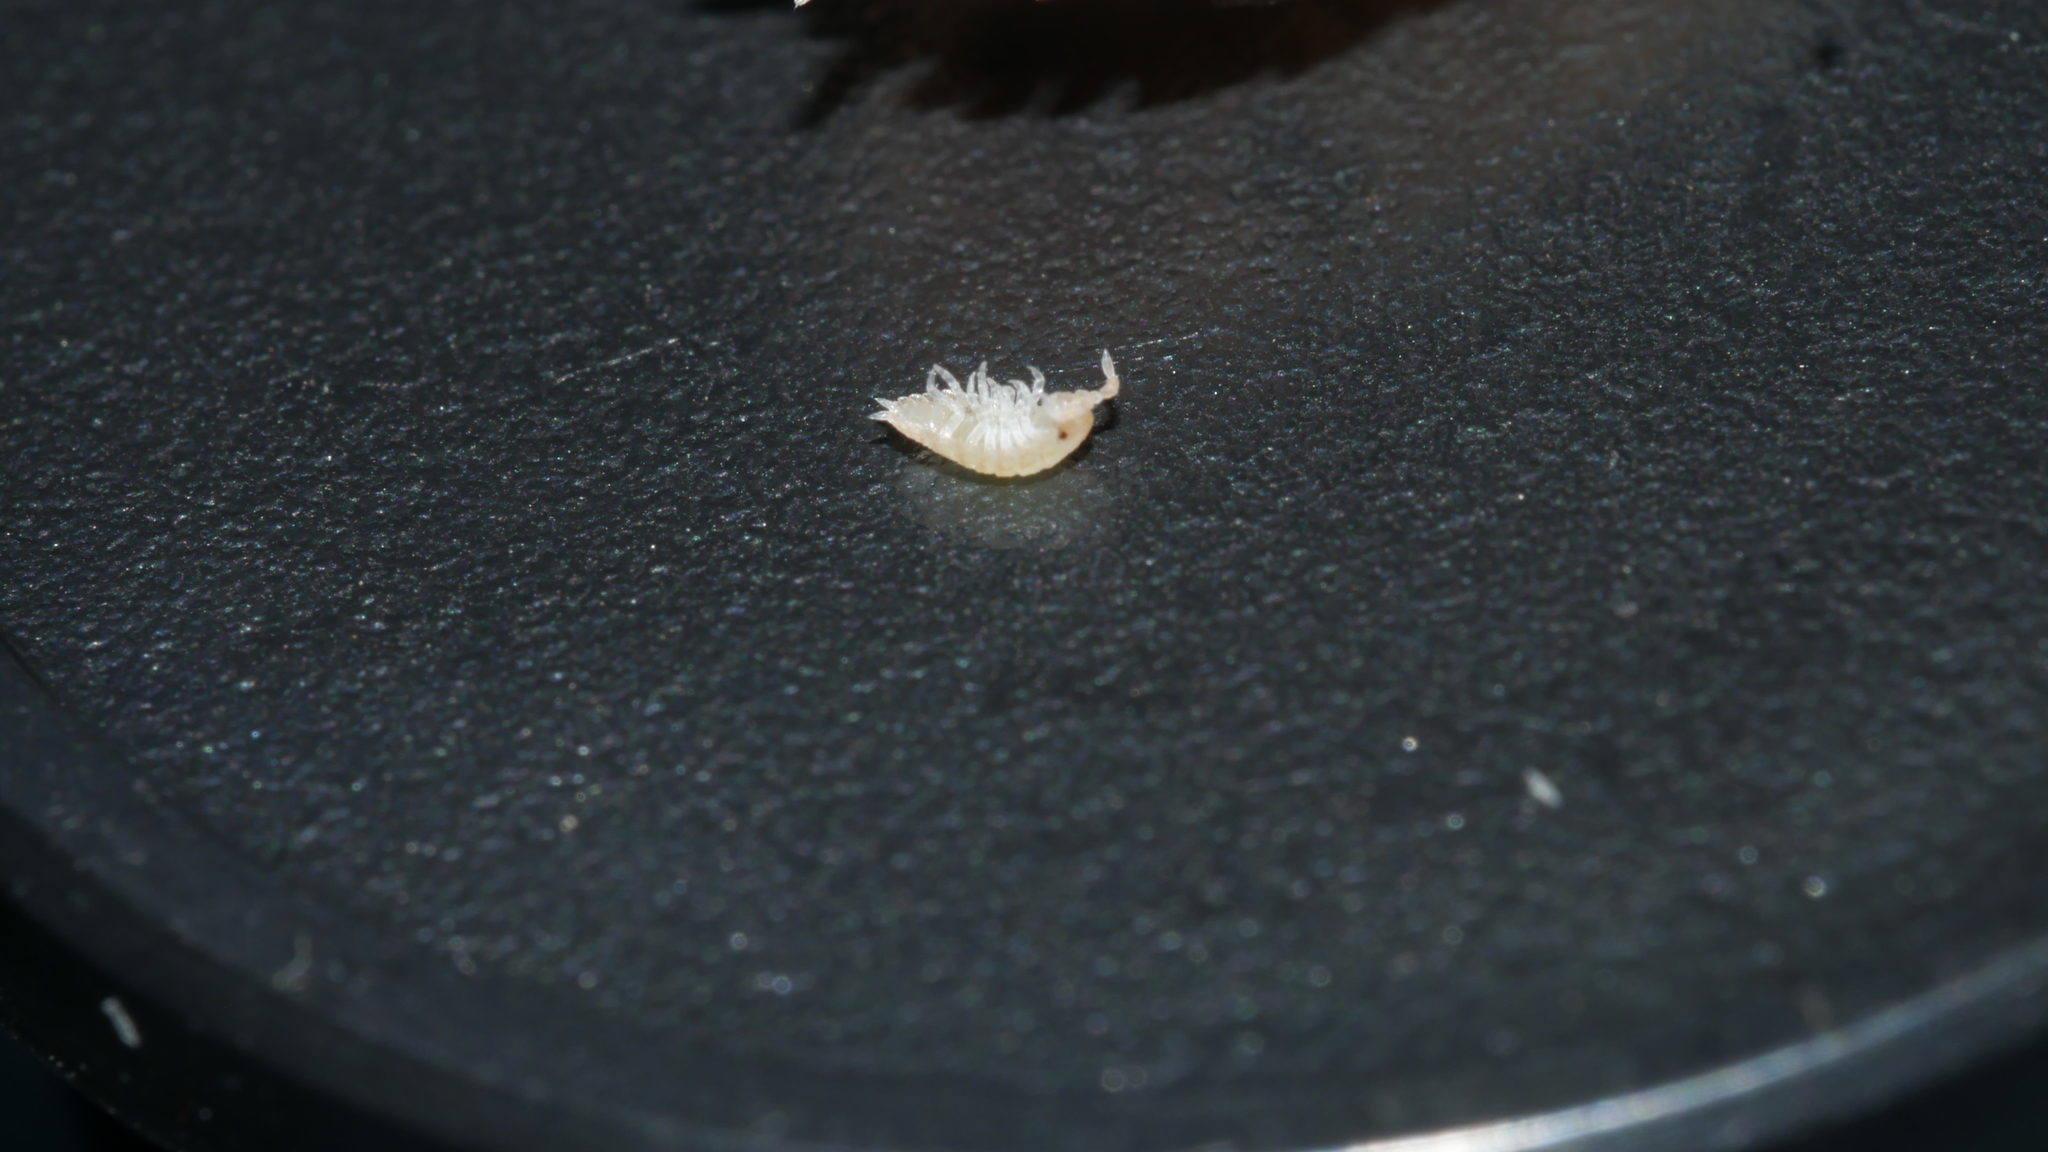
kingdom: Animalia
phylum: Arthropoda
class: Malacostraca
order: Isopoda
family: Porcellionidae
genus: Porcellio
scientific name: Porcellio scaber
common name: Common rough woodlouse
